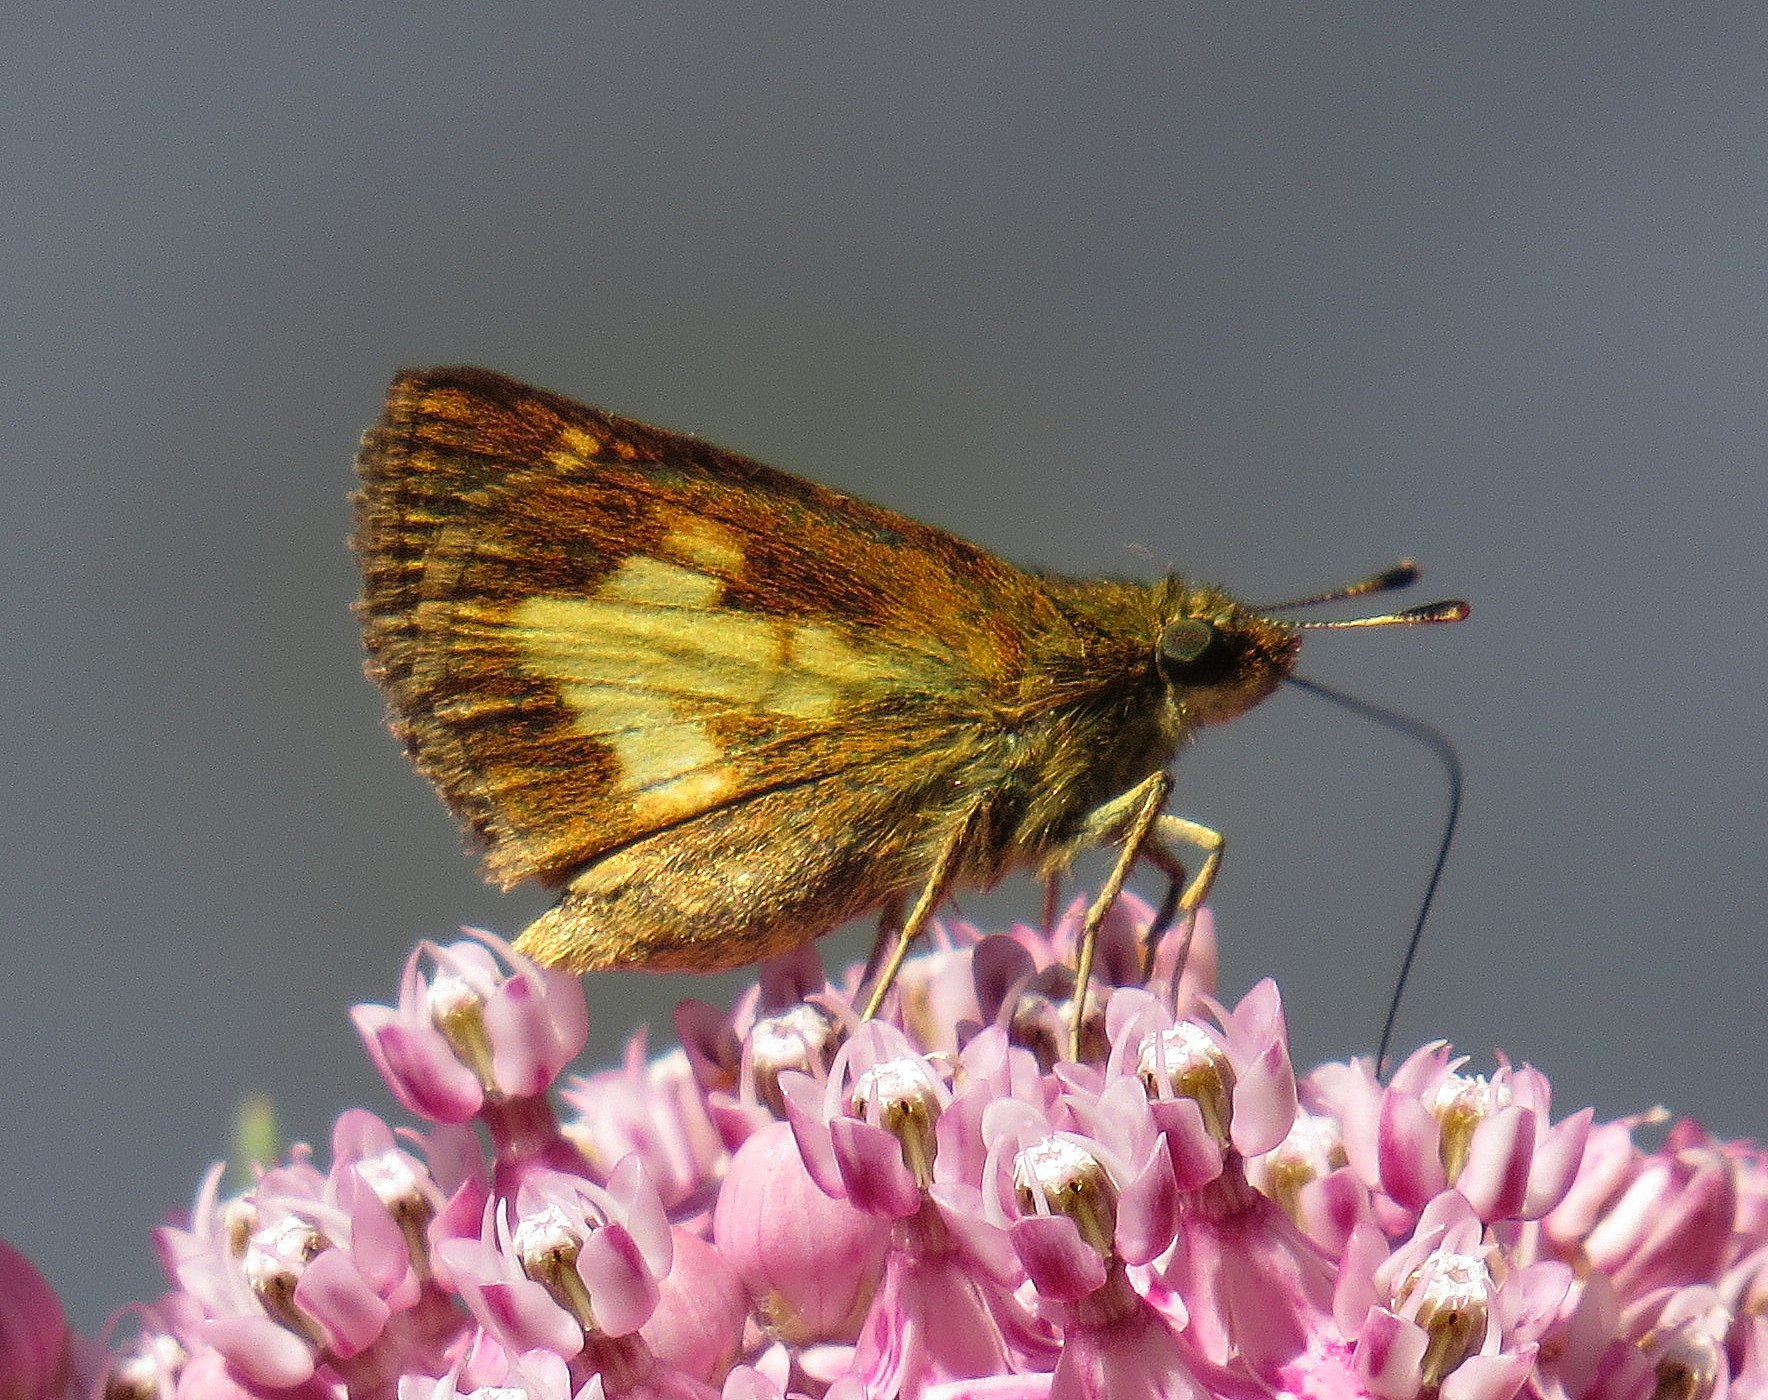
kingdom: Animalia
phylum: Arthropoda
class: Insecta
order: Lepidoptera
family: Hesperiidae
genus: Poanes
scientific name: Poanes massasoit
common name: Mulberrywing
